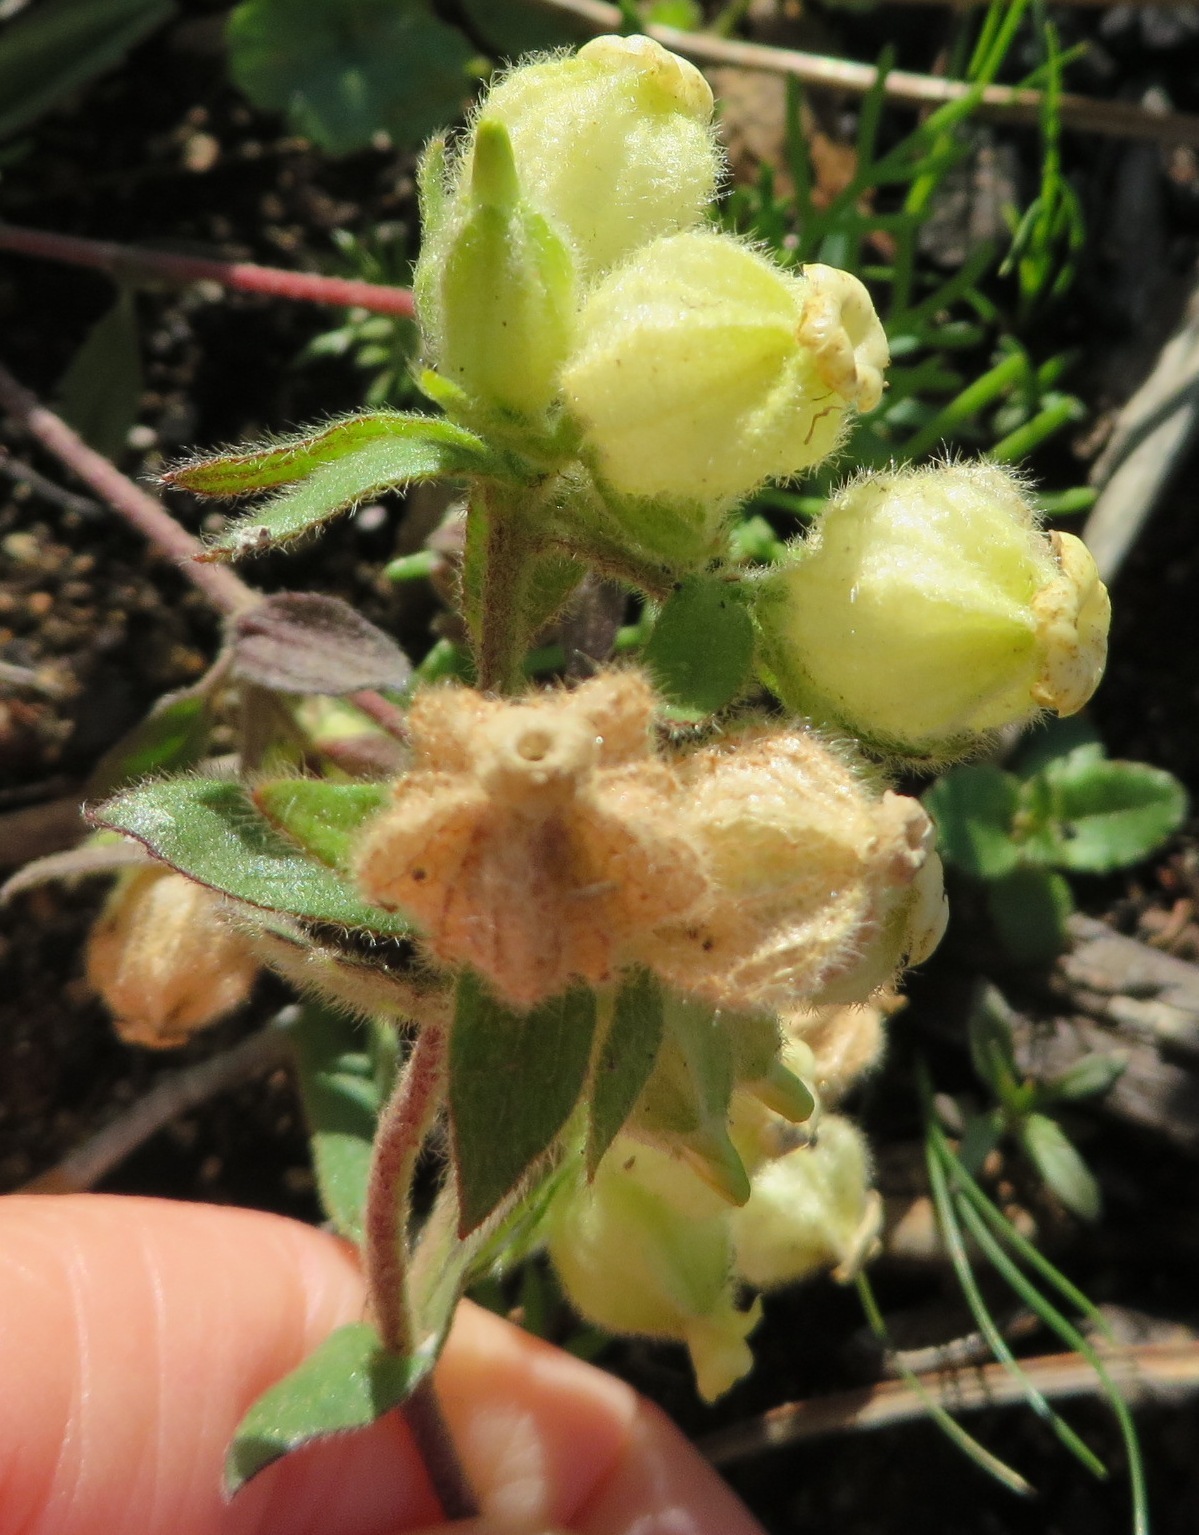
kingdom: Plantae
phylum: Tracheophyta
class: Magnoliopsida
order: Malvales
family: Malvaceae
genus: Hermannia
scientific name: Hermannia hyssopifolia
